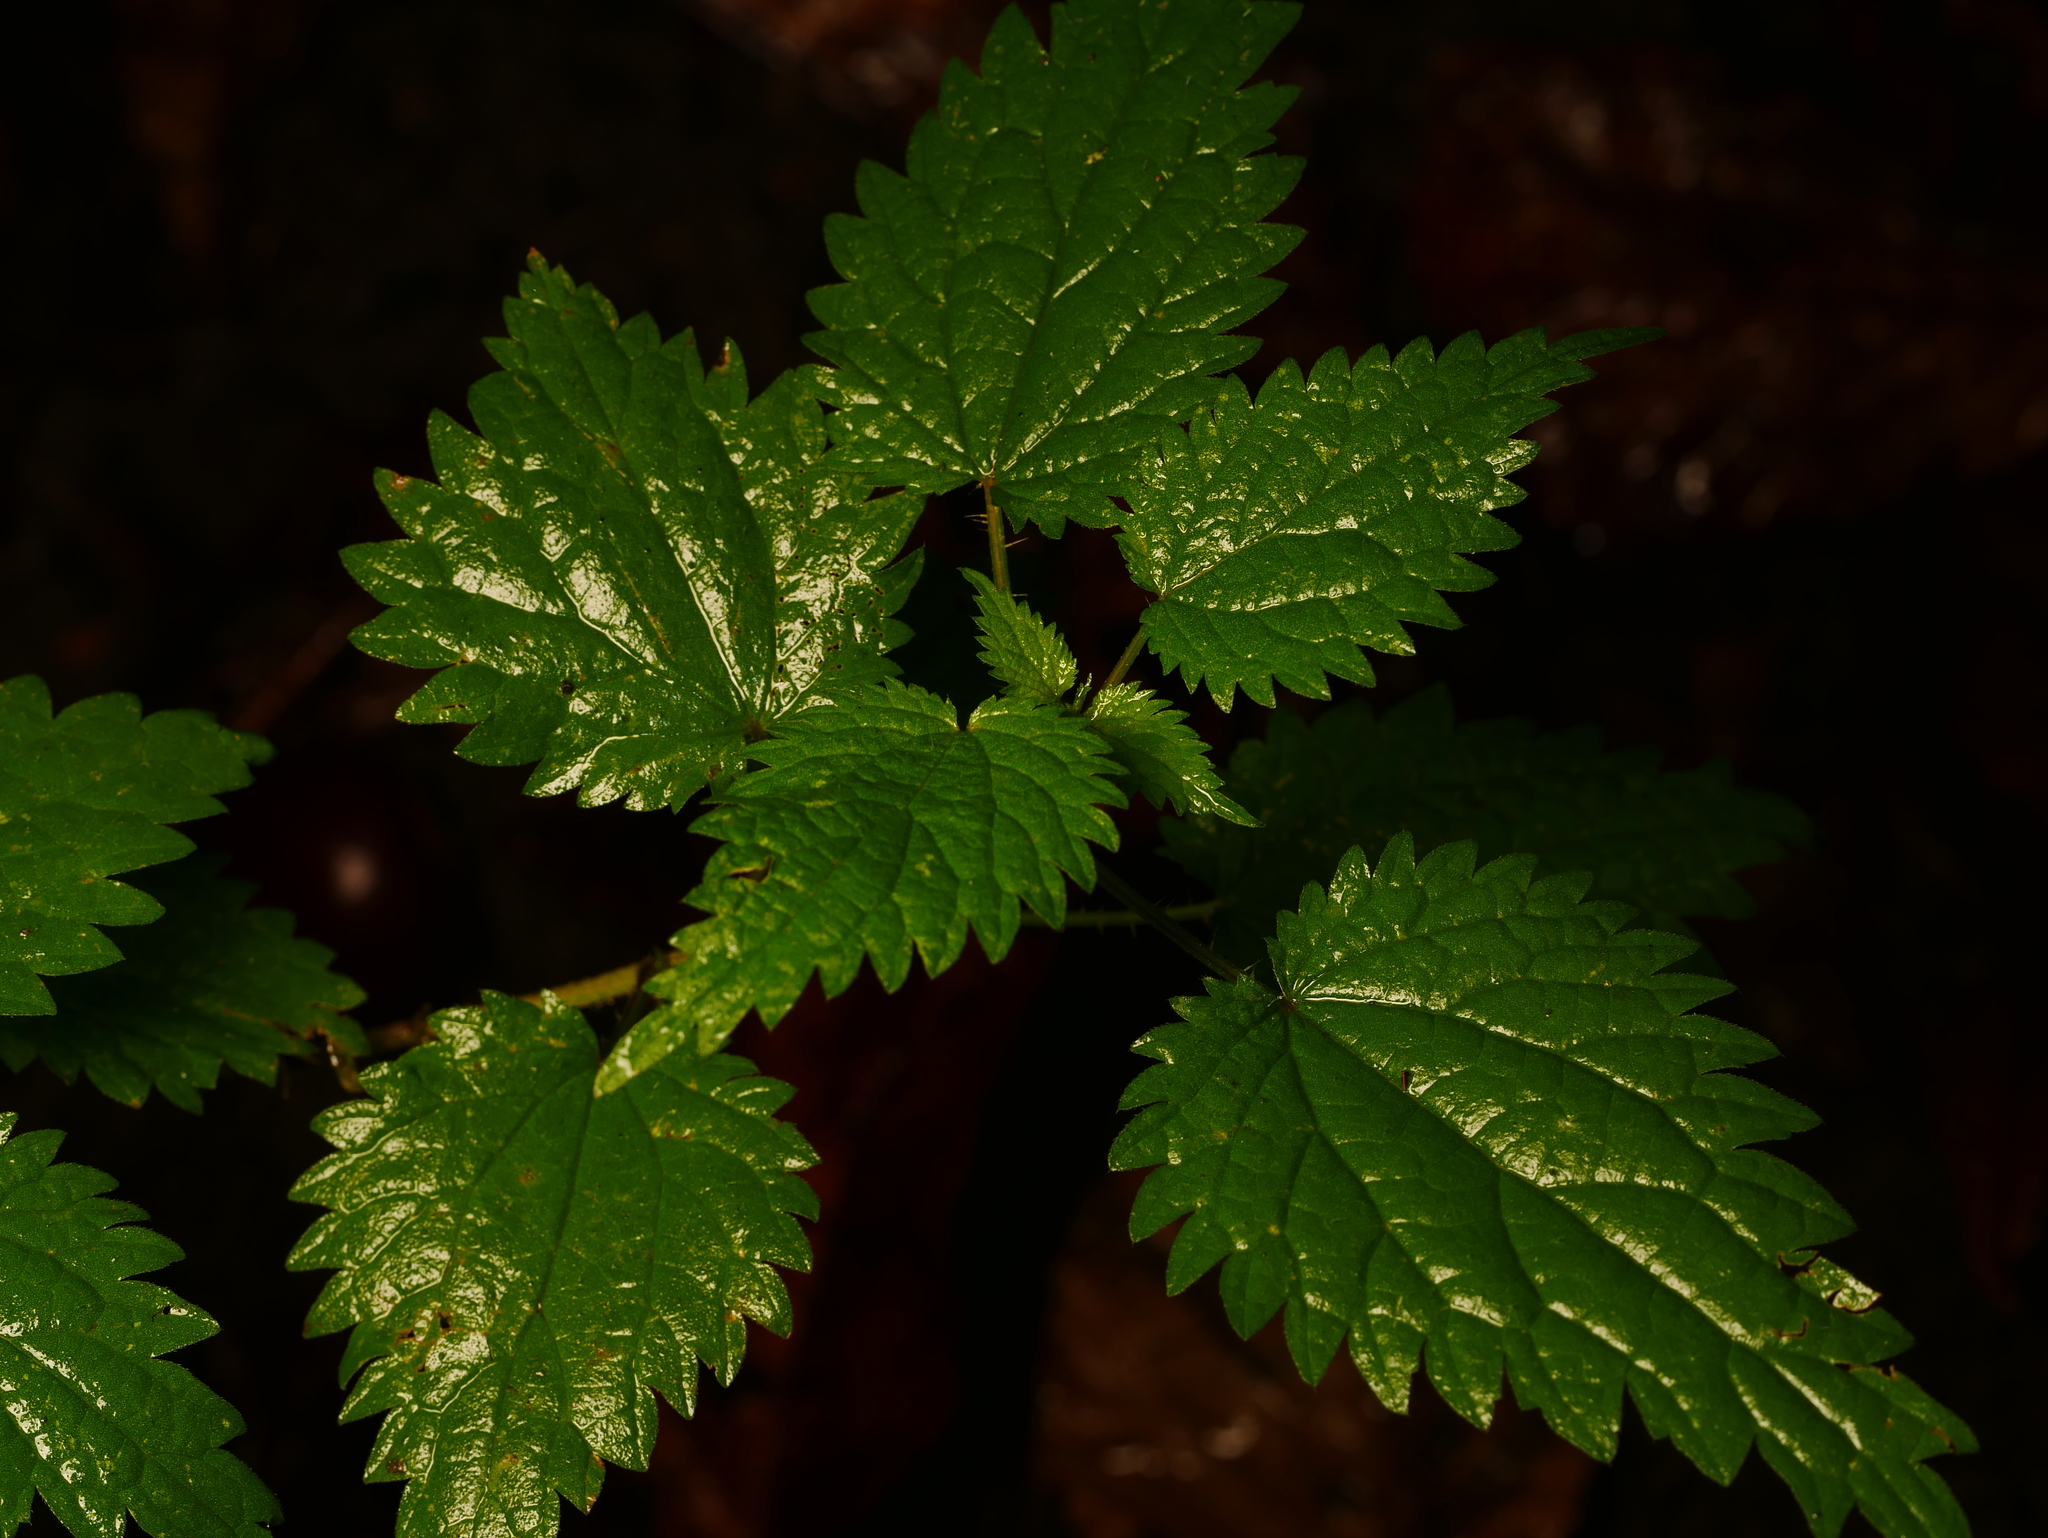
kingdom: Plantae
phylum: Tracheophyta
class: Magnoliopsida
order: Rosales
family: Urticaceae
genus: Urtica
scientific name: Urtica dioica
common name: Common nettle
